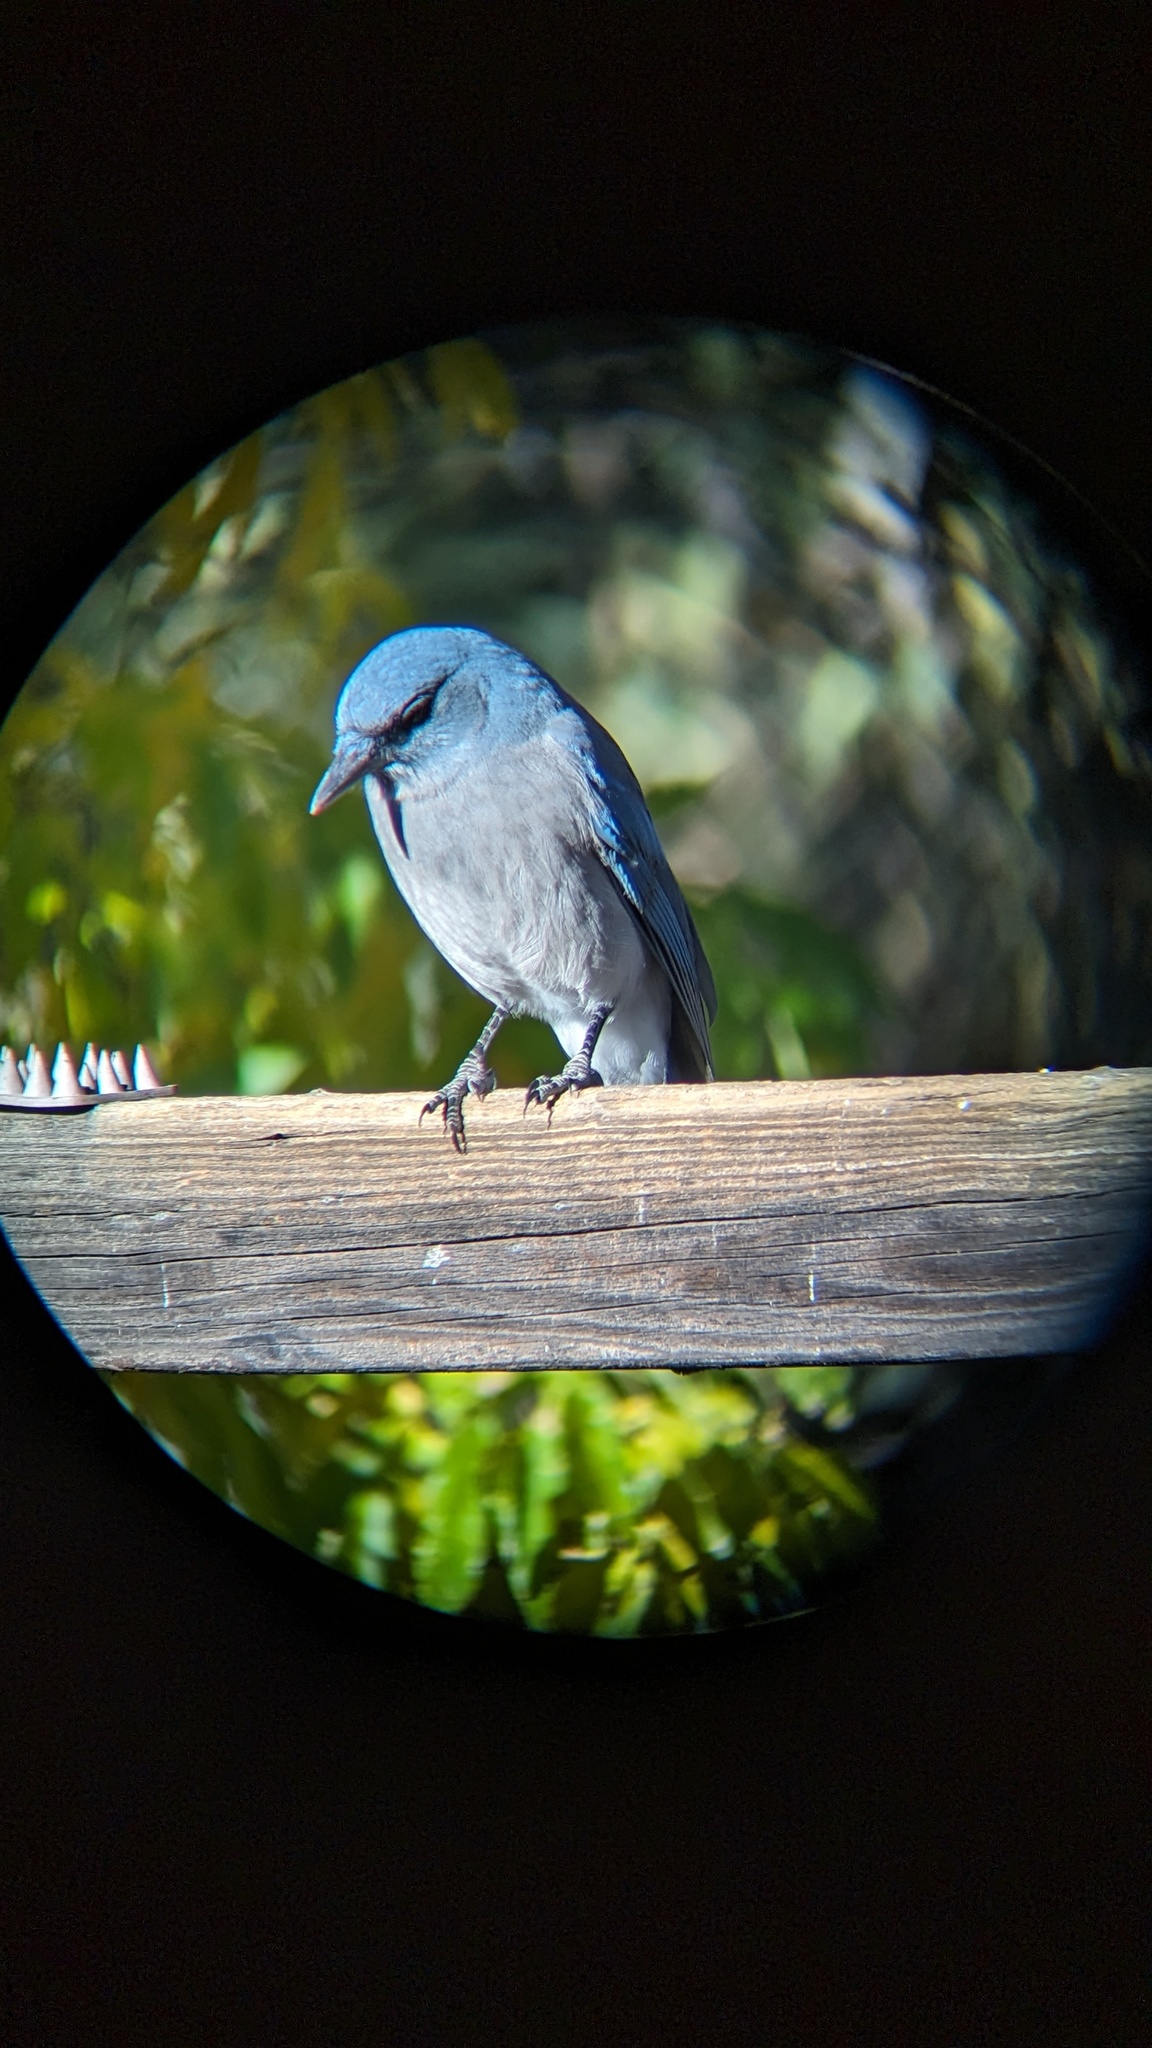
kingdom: Animalia
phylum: Chordata
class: Aves
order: Passeriformes
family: Corvidae
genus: Aphelocoma
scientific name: Aphelocoma wollweberi
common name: Mexican jay
